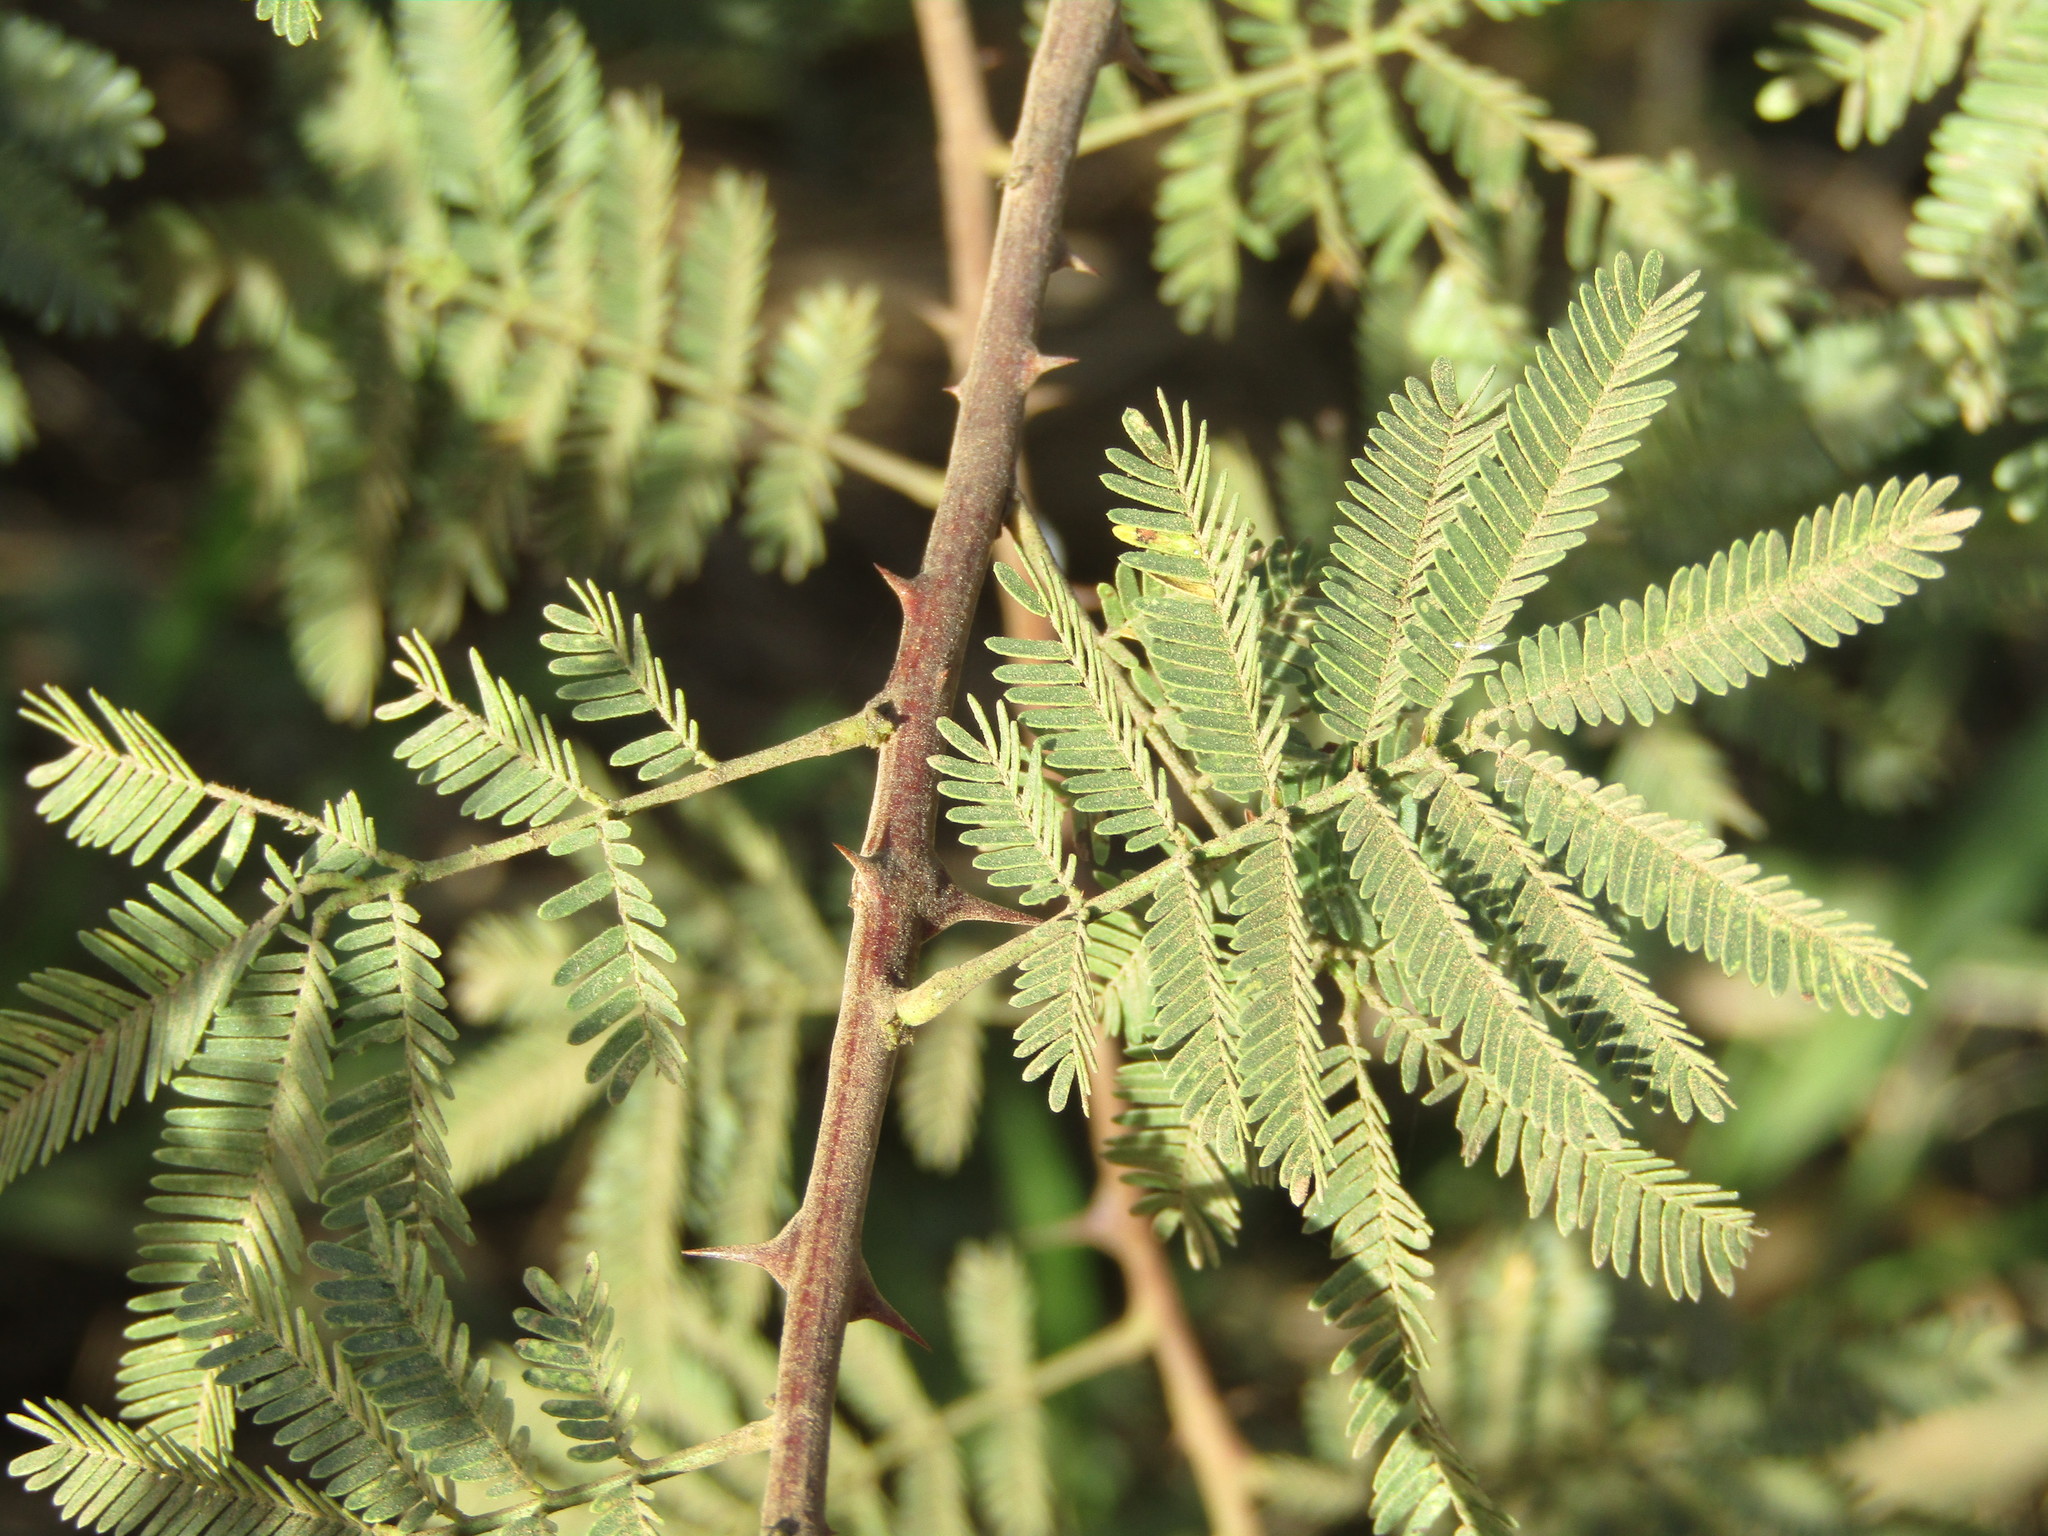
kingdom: Plantae
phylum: Tracheophyta
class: Magnoliopsida
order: Fabales
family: Fabaceae
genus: Mimosa
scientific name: Mimosa tenuiflora
